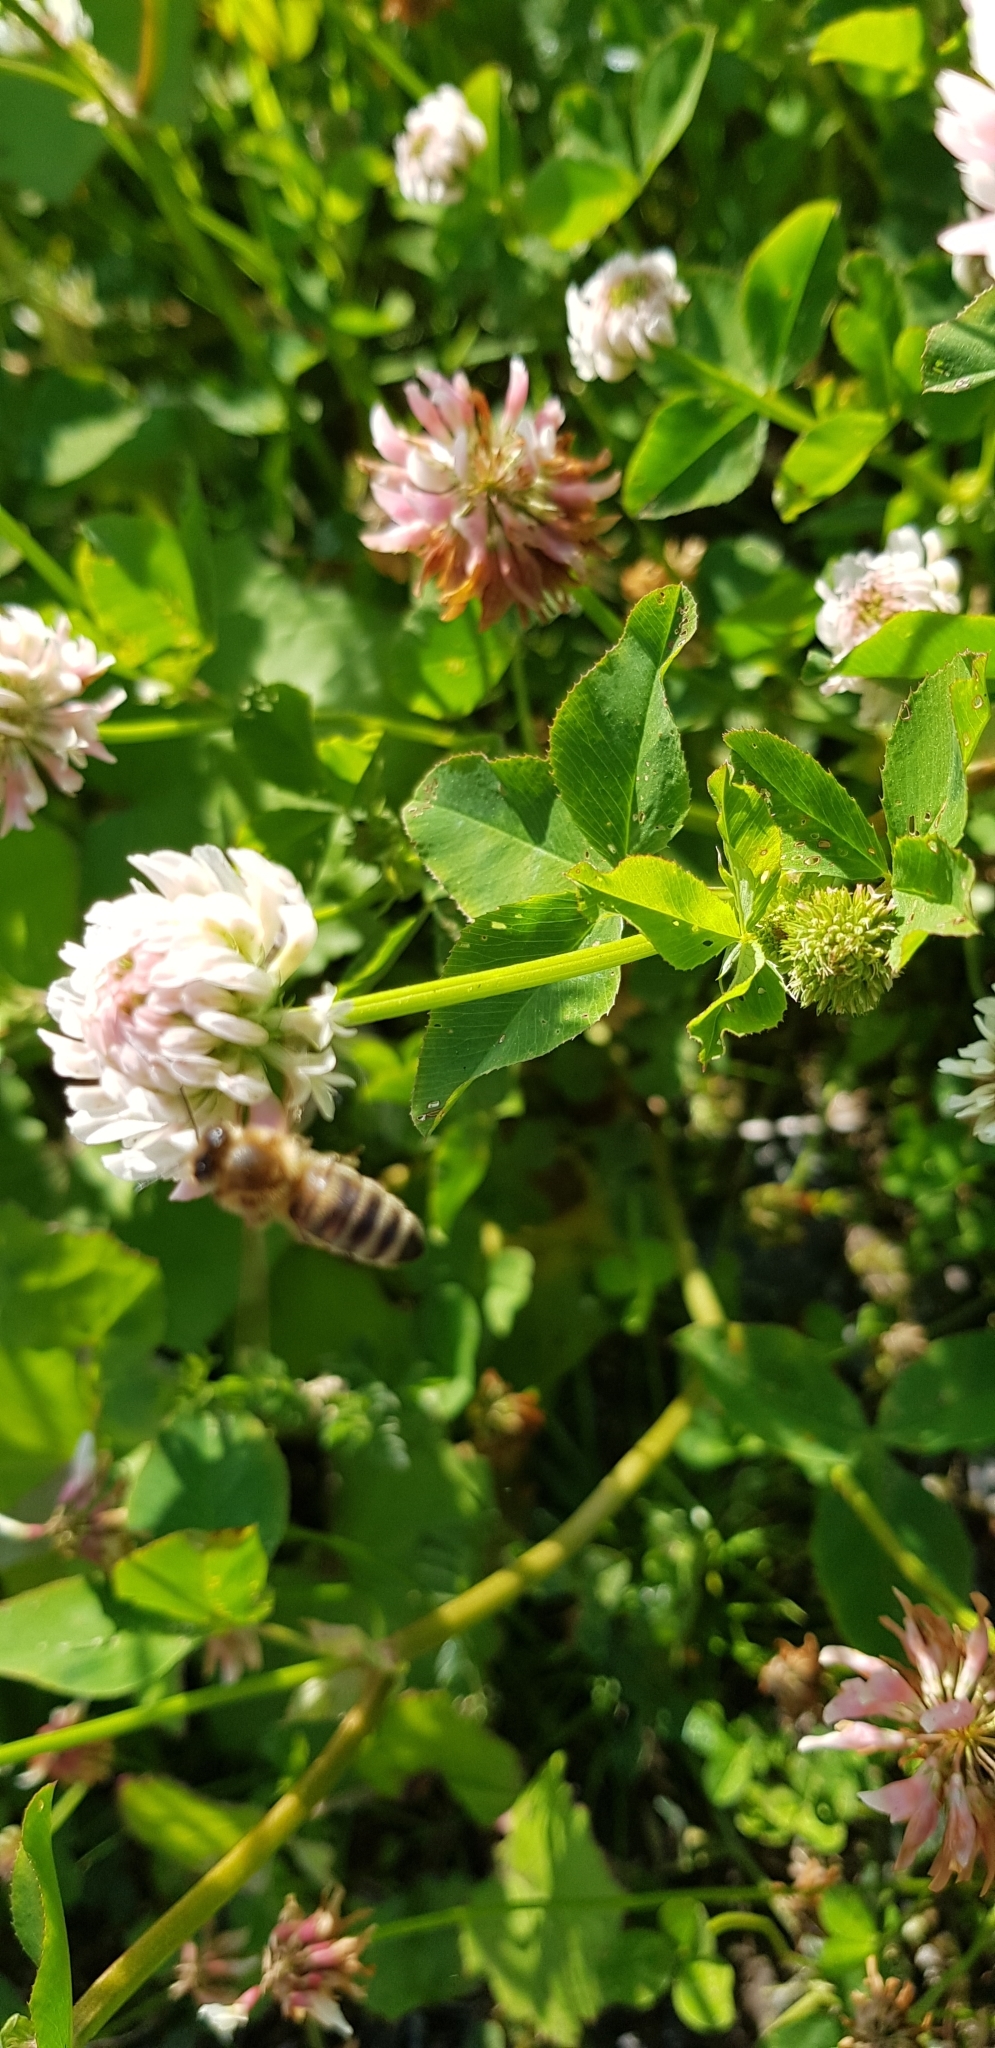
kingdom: Animalia
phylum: Arthropoda
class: Insecta
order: Hymenoptera
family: Apidae
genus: Apis
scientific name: Apis mellifera
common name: Honey bee
